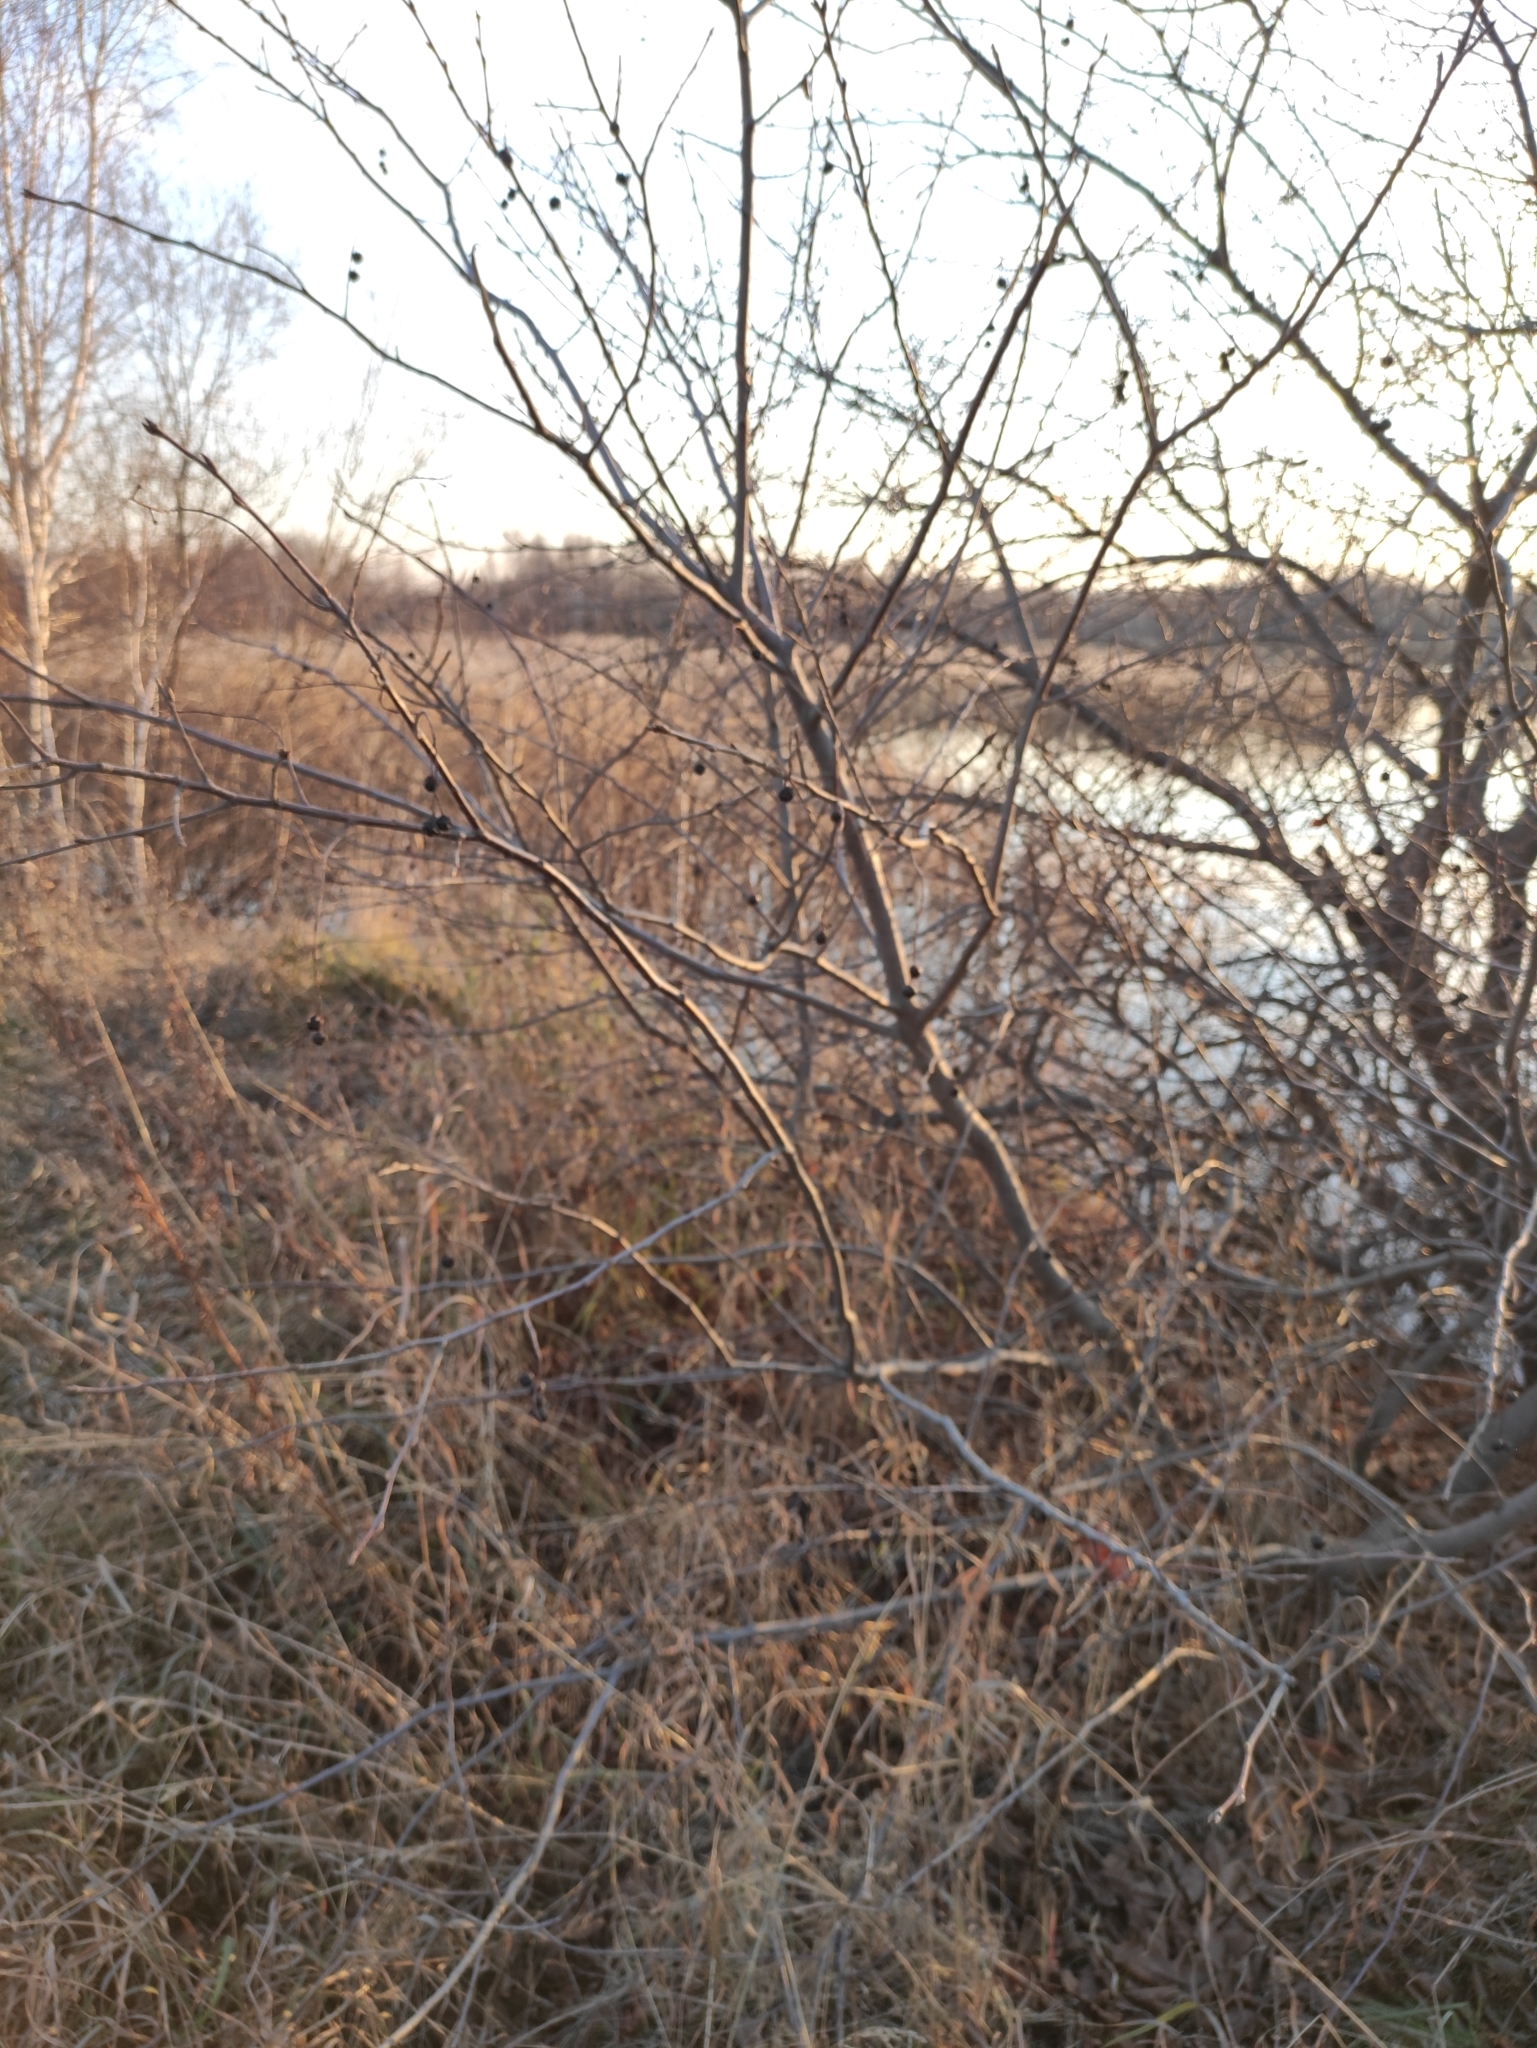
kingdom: Plantae
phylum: Tracheophyta
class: Magnoliopsida
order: Rosales
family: Rosaceae
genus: Prunus
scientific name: Prunus padus
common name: Bird cherry
